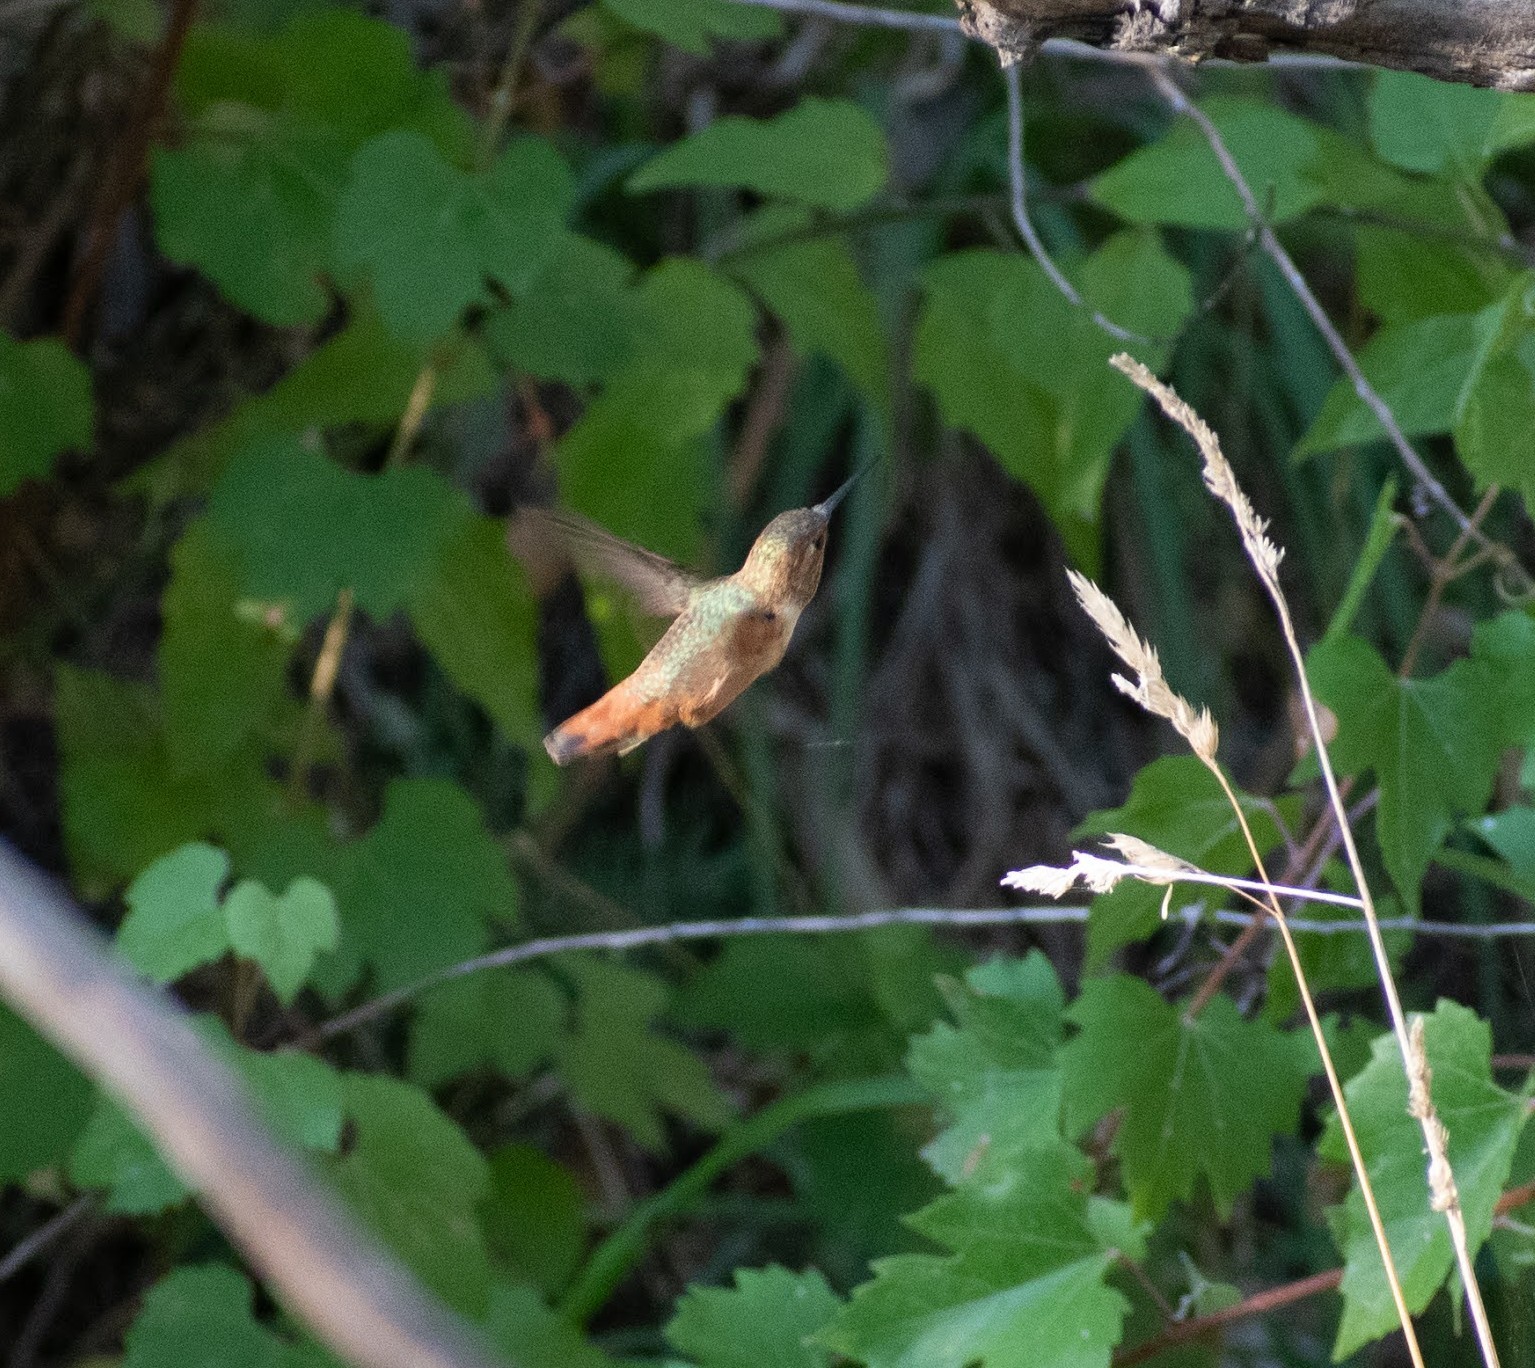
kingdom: Animalia
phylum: Chordata
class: Aves
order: Apodiformes
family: Trochilidae
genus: Selasphorus
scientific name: Selasphorus rufus
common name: Rufous hummingbird
